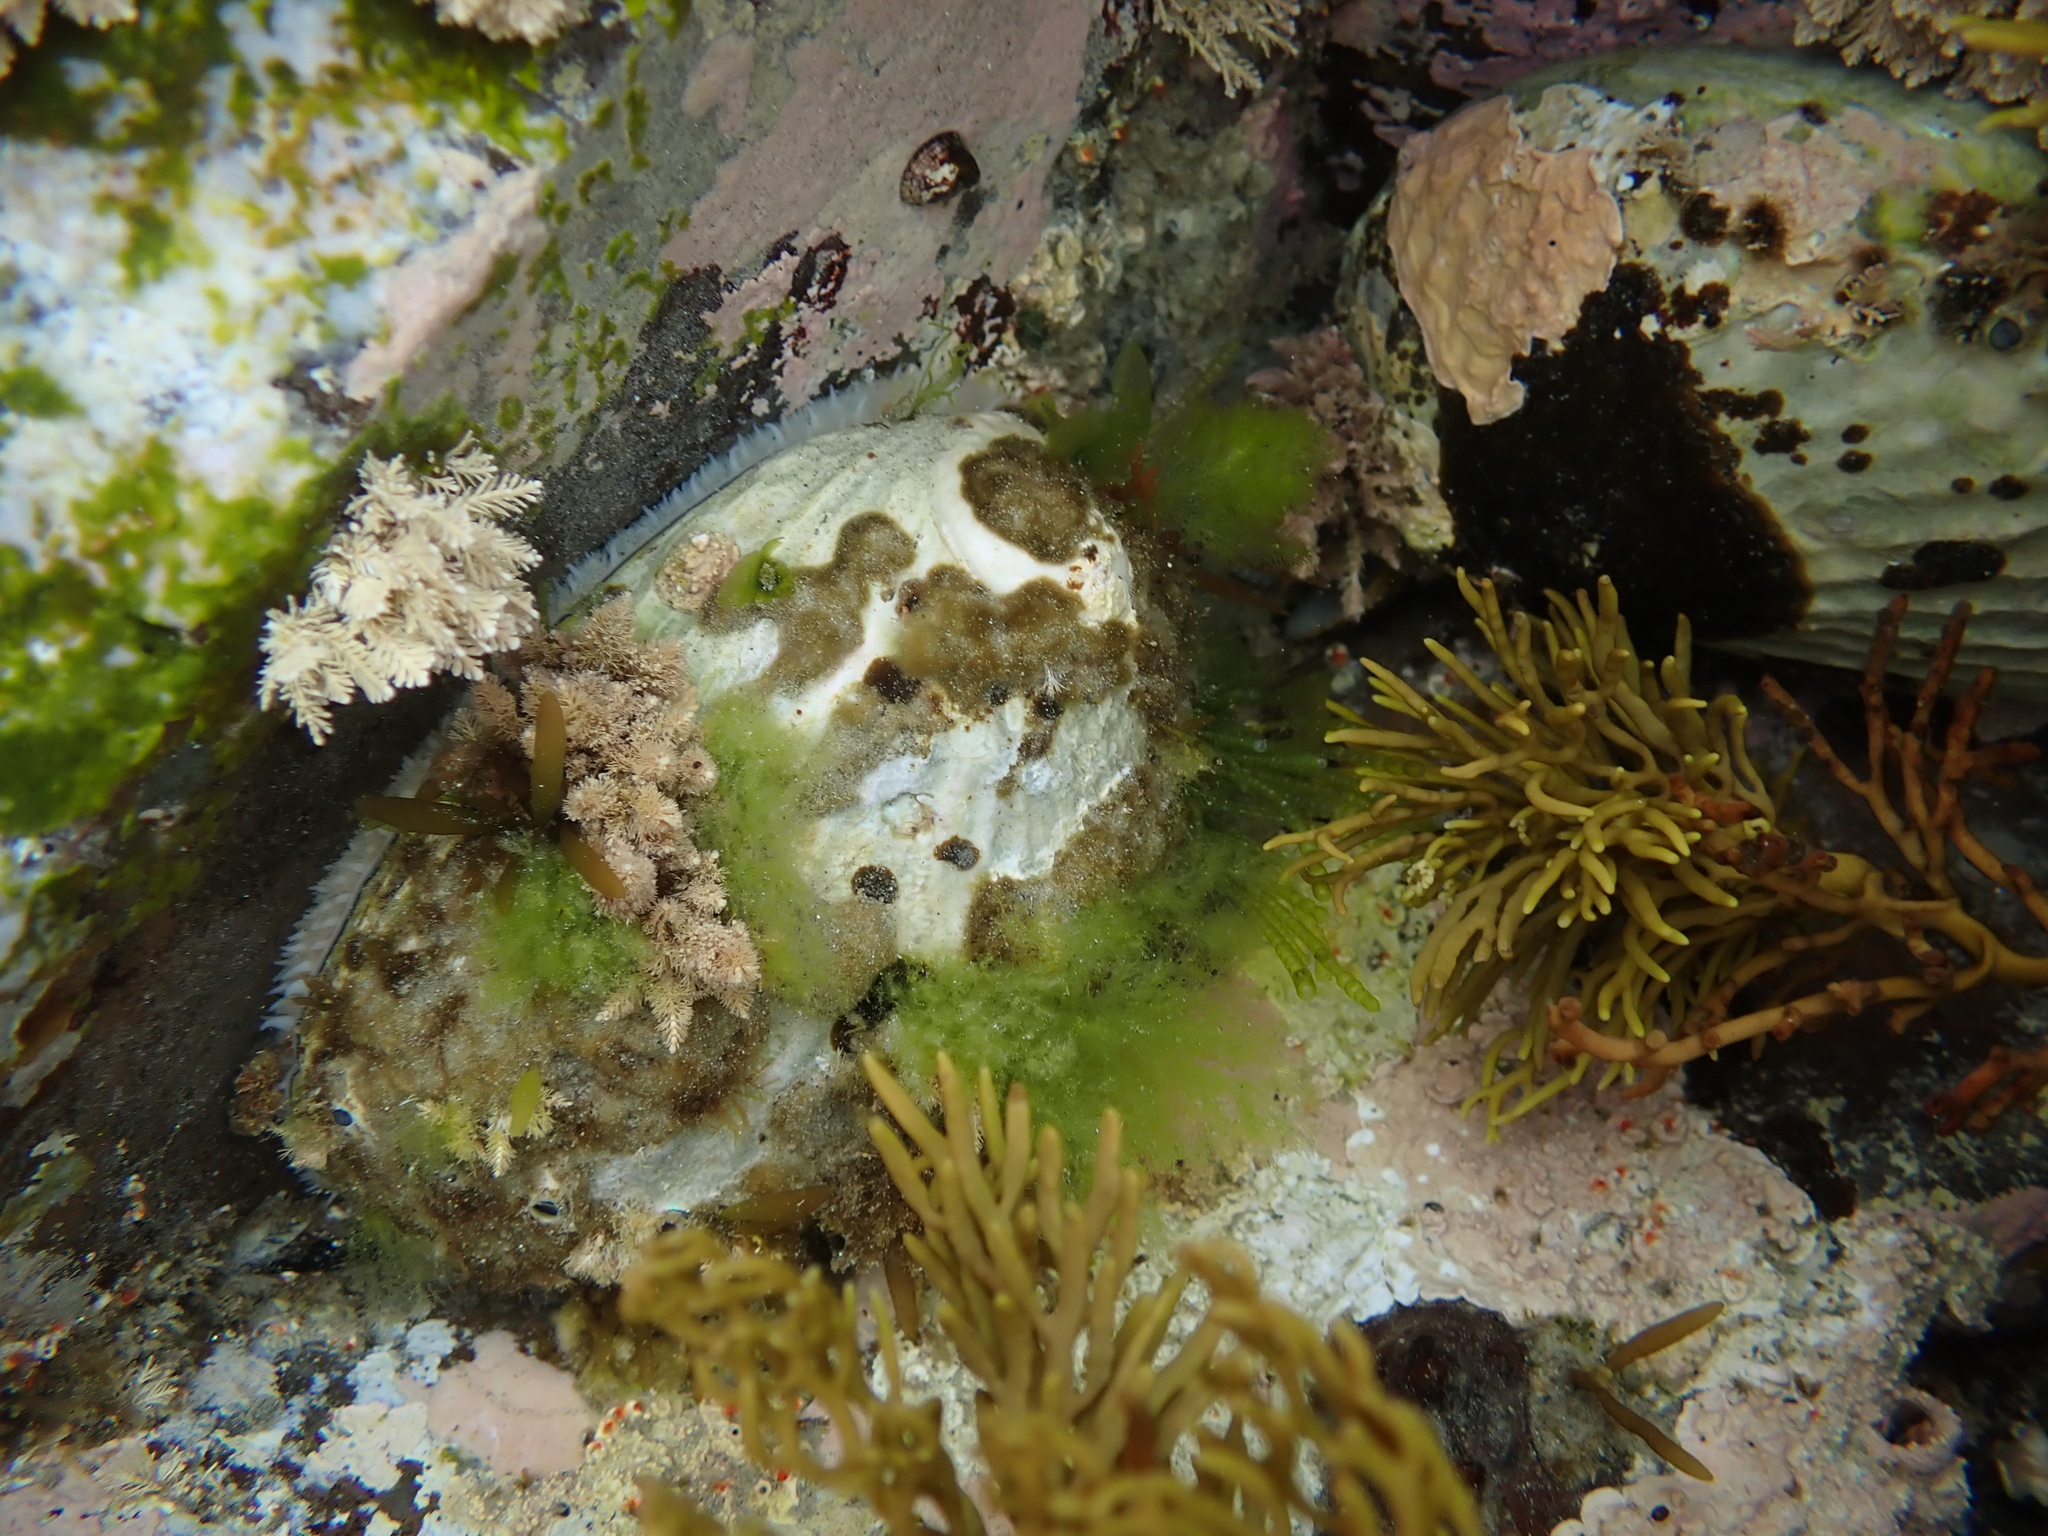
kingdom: Animalia
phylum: Mollusca
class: Gastropoda
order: Lepetellida
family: Haliotidae
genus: Haliotis
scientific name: Haliotis australis
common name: Silver abalone
